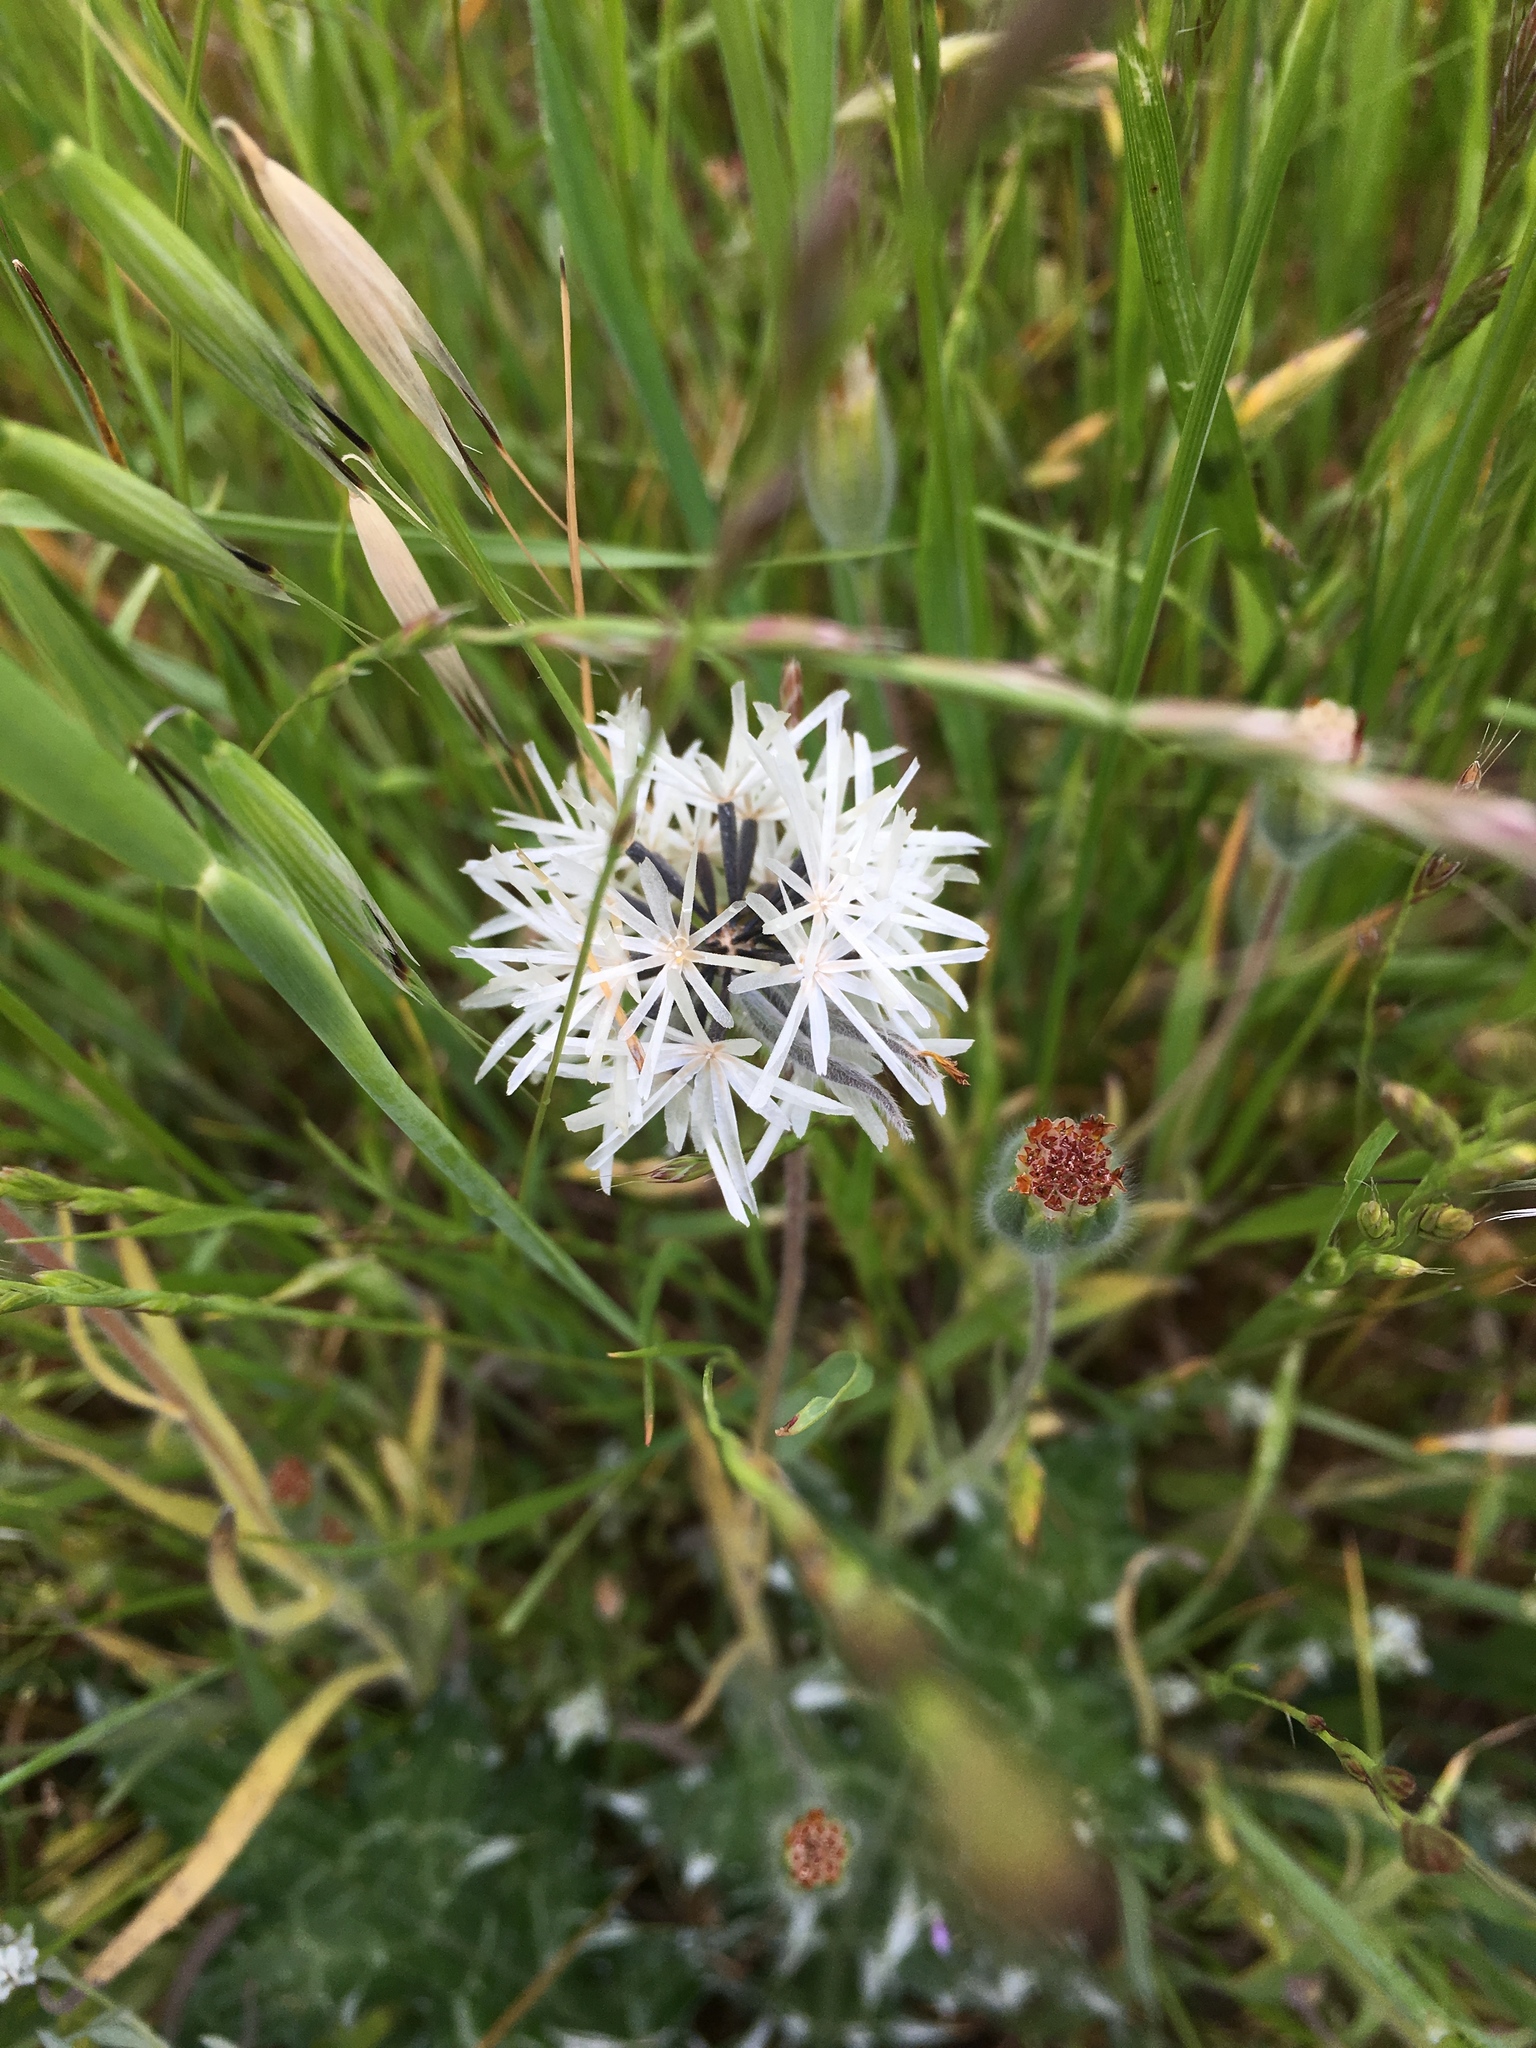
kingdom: Plantae
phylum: Tracheophyta
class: Magnoliopsida
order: Asterales
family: Asteraceae
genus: Achyrachaena
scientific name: Achyrachaena mollis
